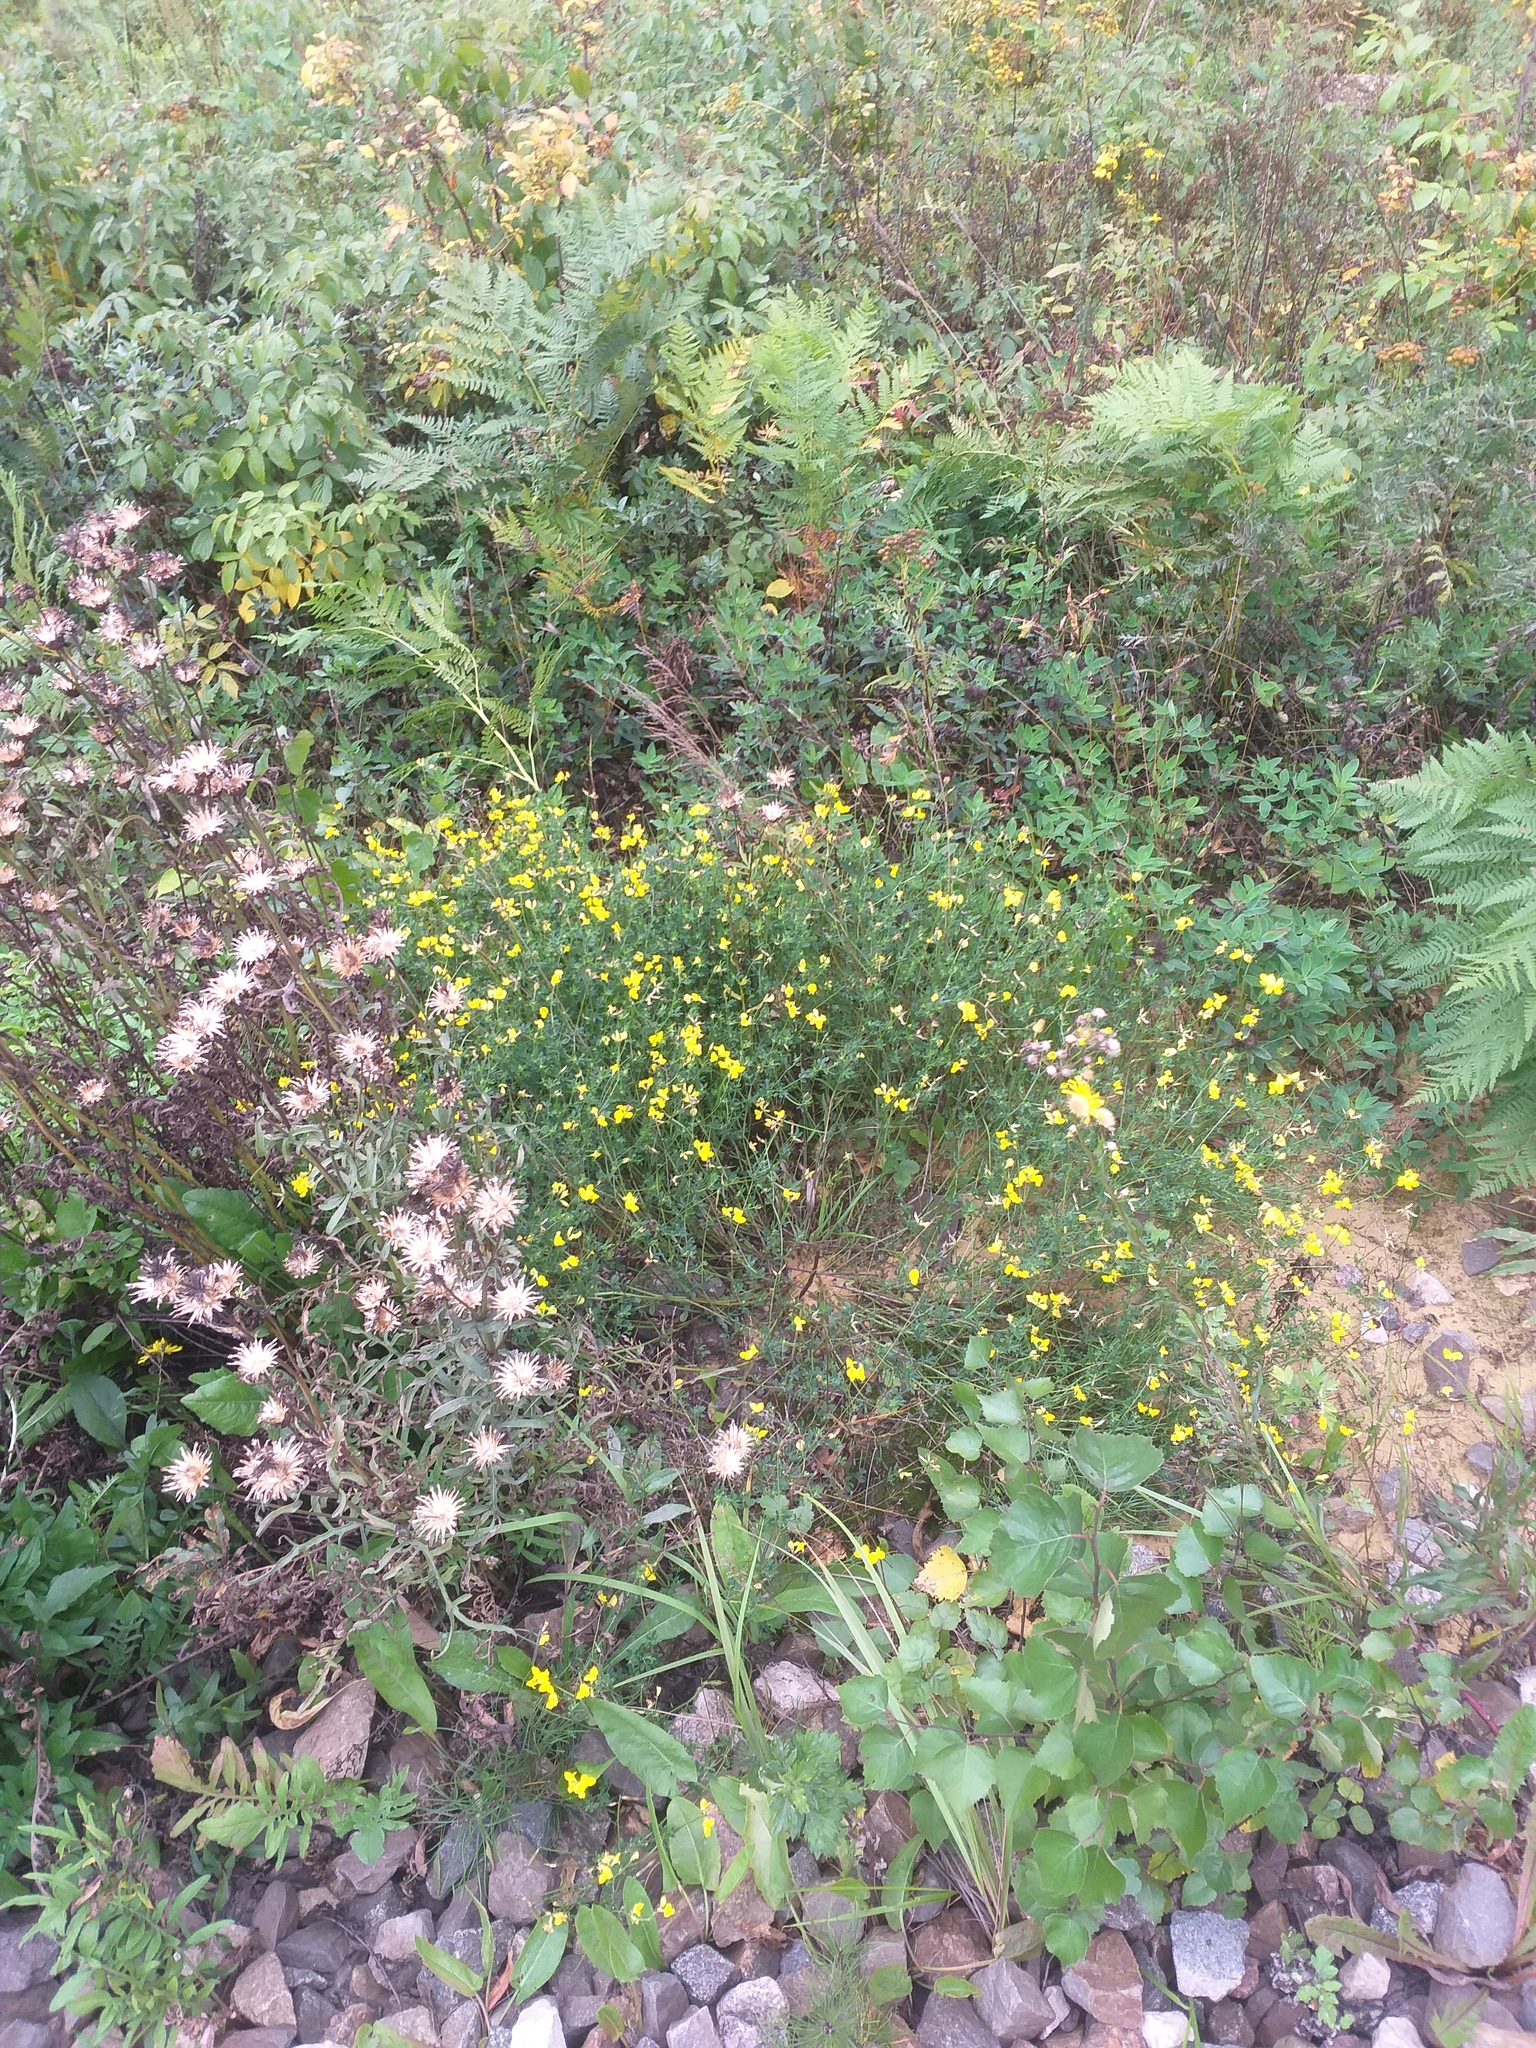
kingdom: Plantae
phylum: Tracheophyta
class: Magnoliopsida
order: Fabales
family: Fabaceae
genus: Lotus
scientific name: Lotus corniculatus
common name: Common bird's-foot-trefoil
